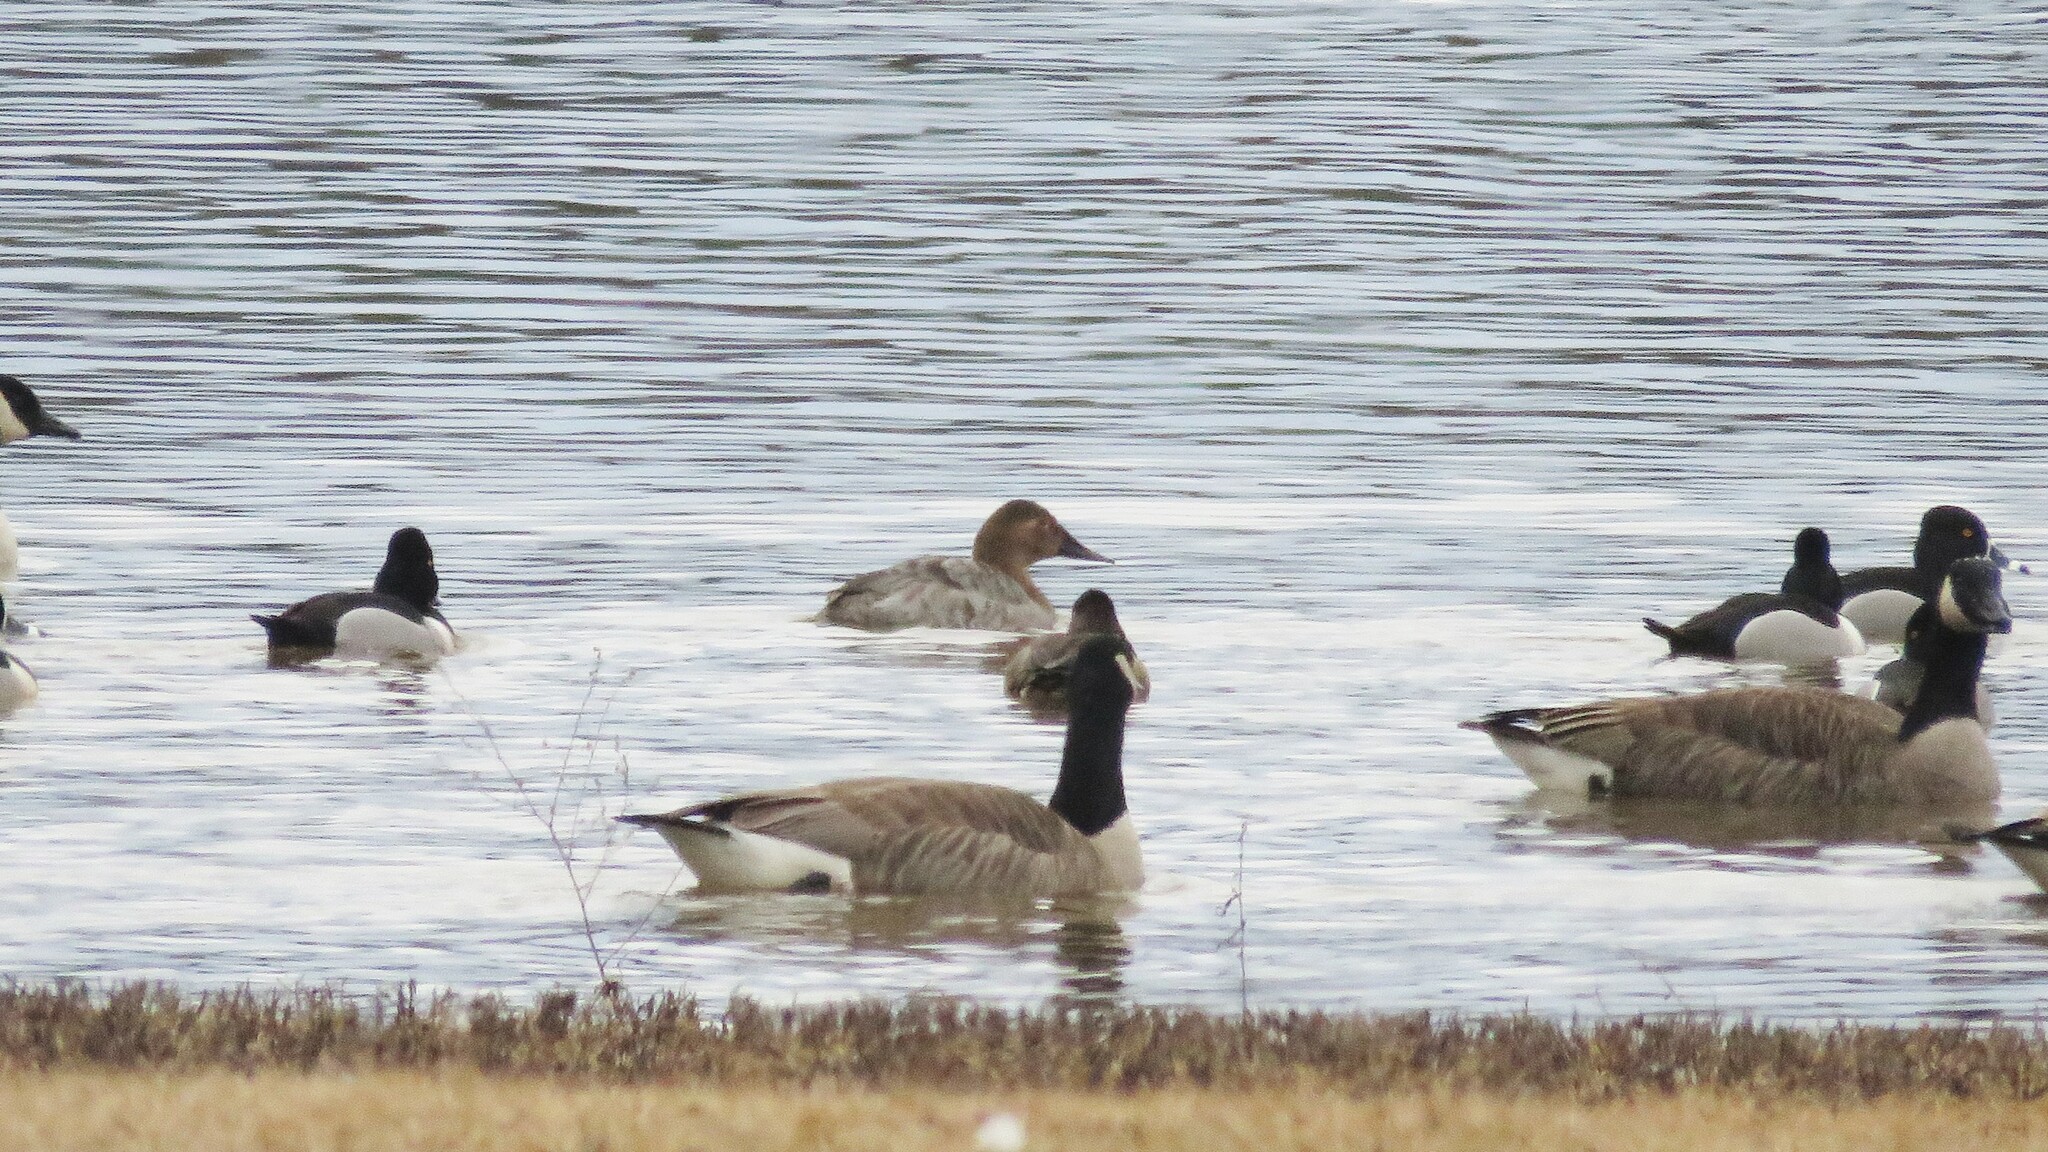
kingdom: Animalia
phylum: Chordata
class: Aves
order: Anseriformes
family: Anatidae
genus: Aythya
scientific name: Aythya valisineria
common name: Canvasback
